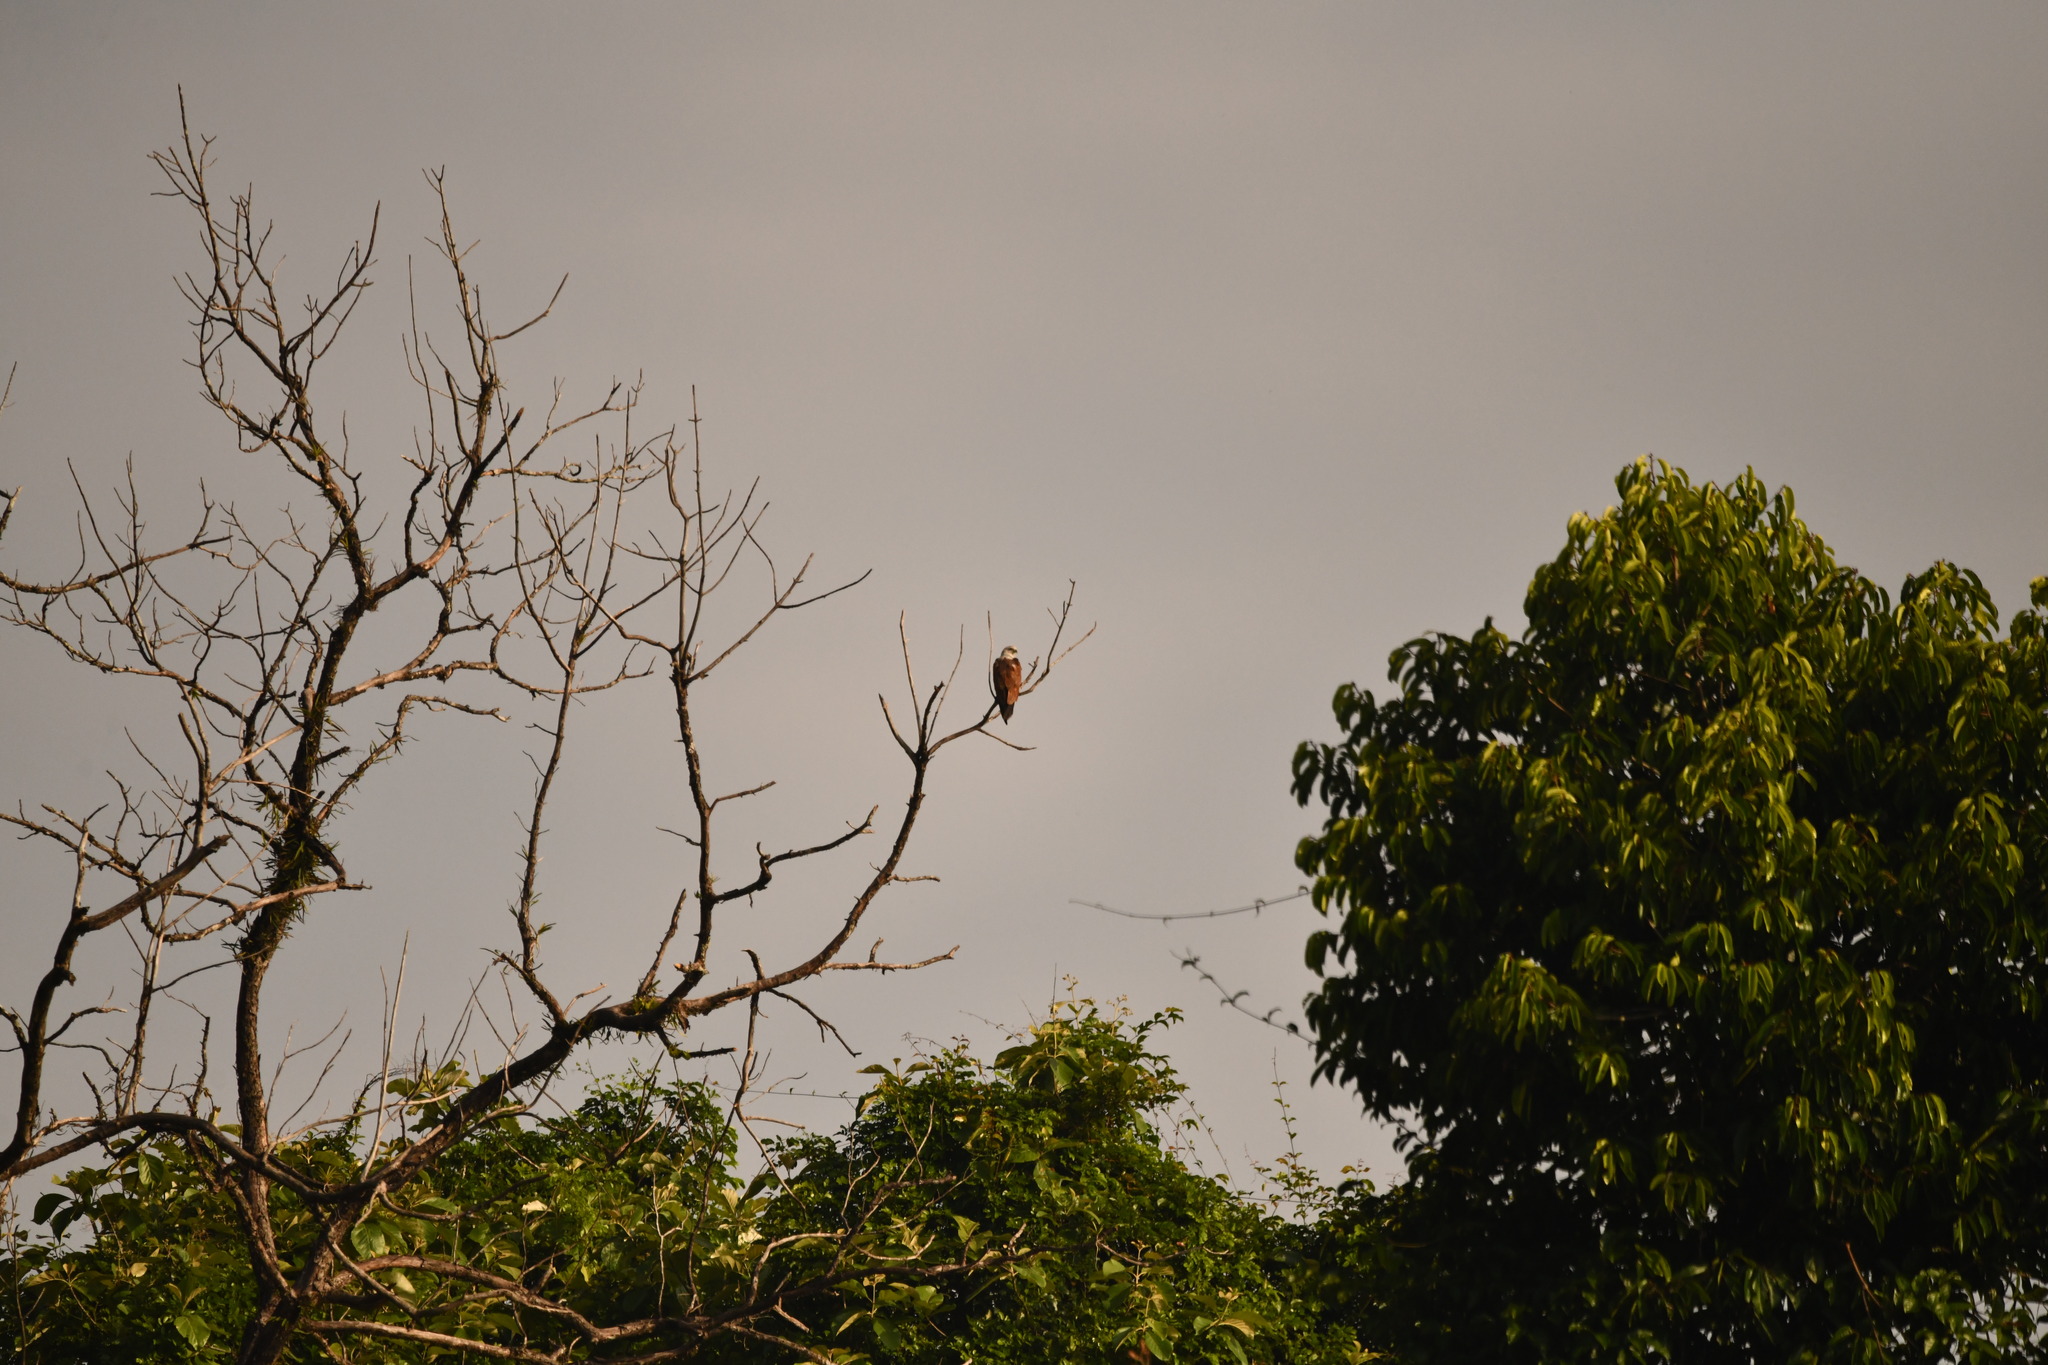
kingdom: Animalia
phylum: Chordata
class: Aves
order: Accipitriformes
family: Accipitridae
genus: Haliastur
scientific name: Haliastur indus
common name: Brahminy kite
